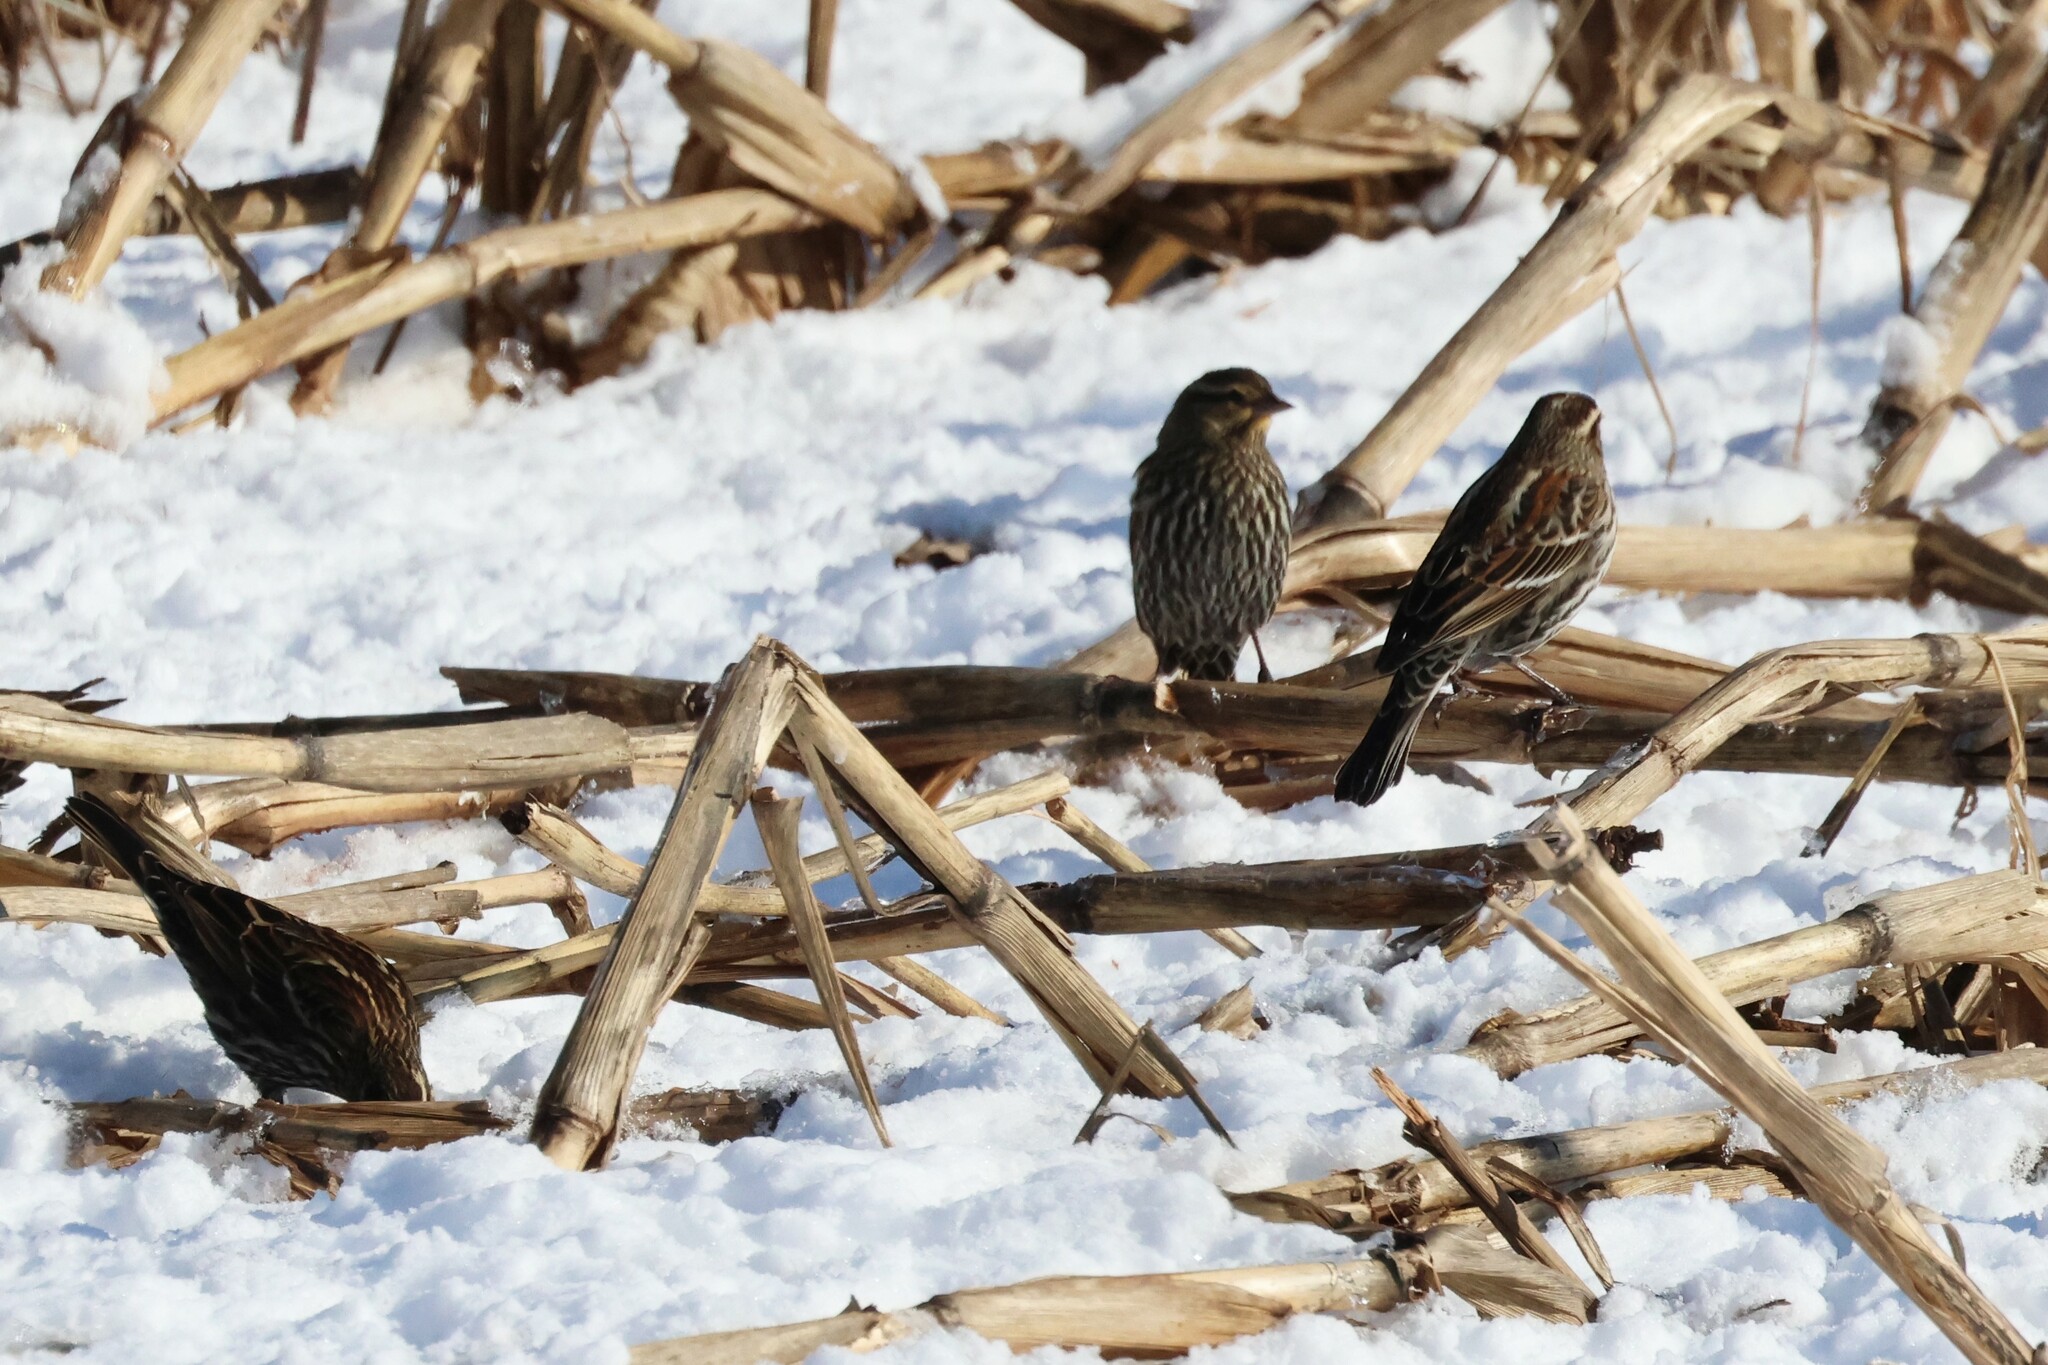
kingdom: Animalia
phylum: Chordata
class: Aves
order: Passeriformes
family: Icteridae
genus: Agelaius
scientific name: Agelaius phoeniceus
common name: Red-winged blackbird
